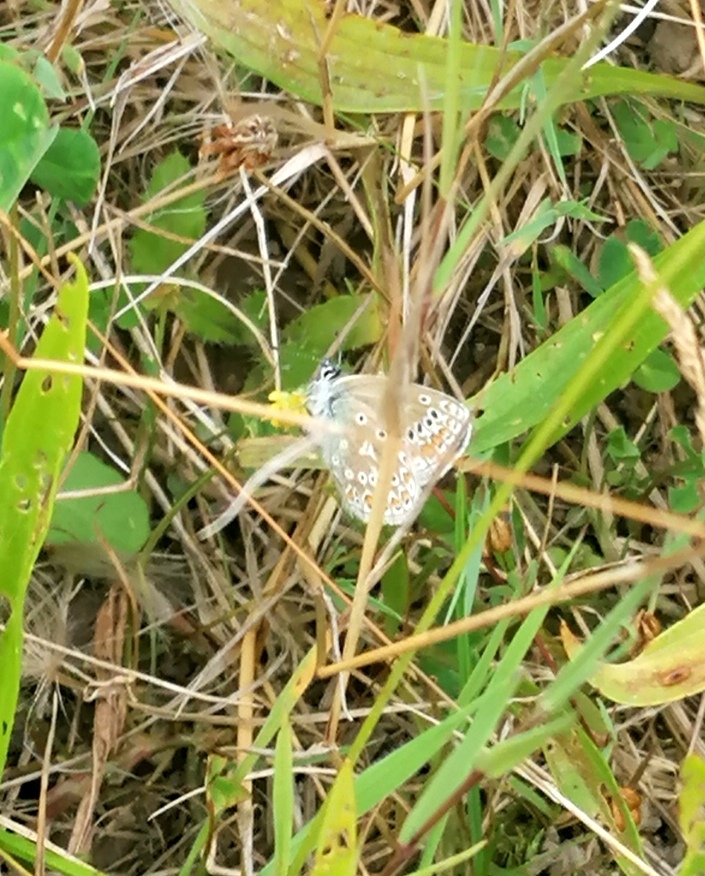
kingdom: Animalia
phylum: Arthropoda
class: Insecta
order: Lepidoptera
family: Lycaenidae
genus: Polyommatus
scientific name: Polyommatus icarus
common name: Common blue
